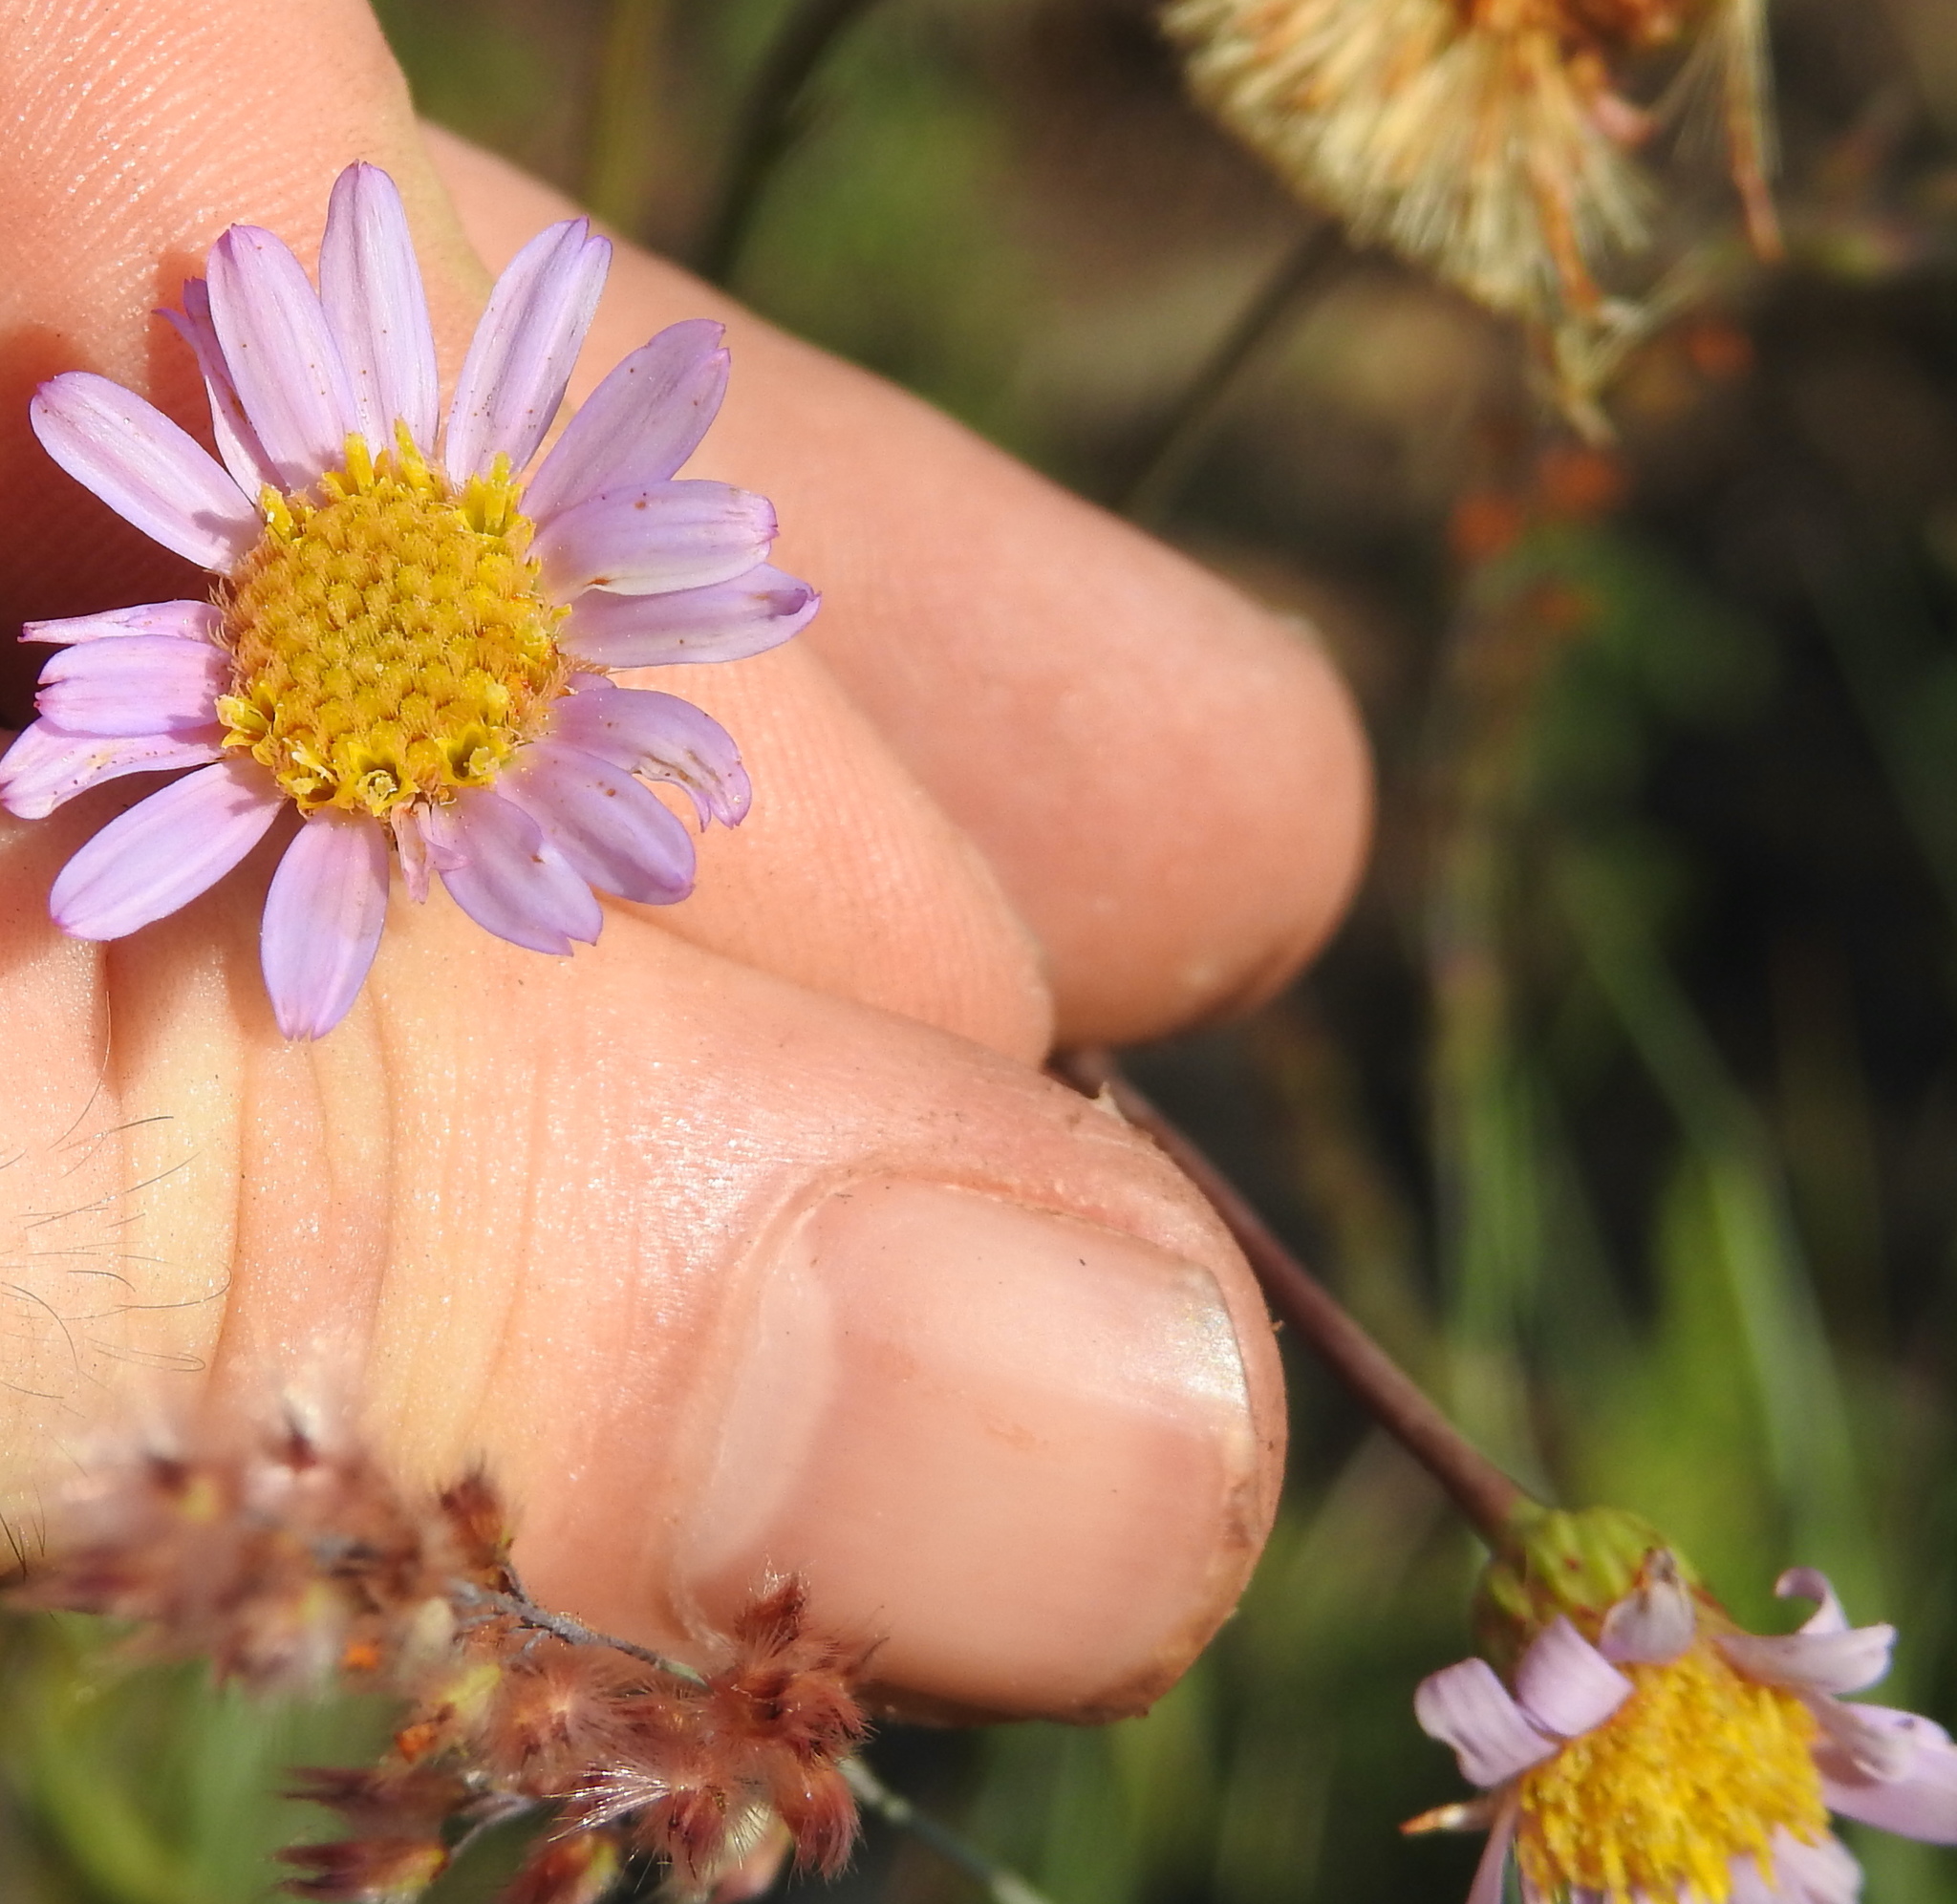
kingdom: Plantae
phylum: Tracheophyta
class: Magnoliopsida
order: Asterales
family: Asteraceae
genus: Afroaster
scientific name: Afroaster hispidus
